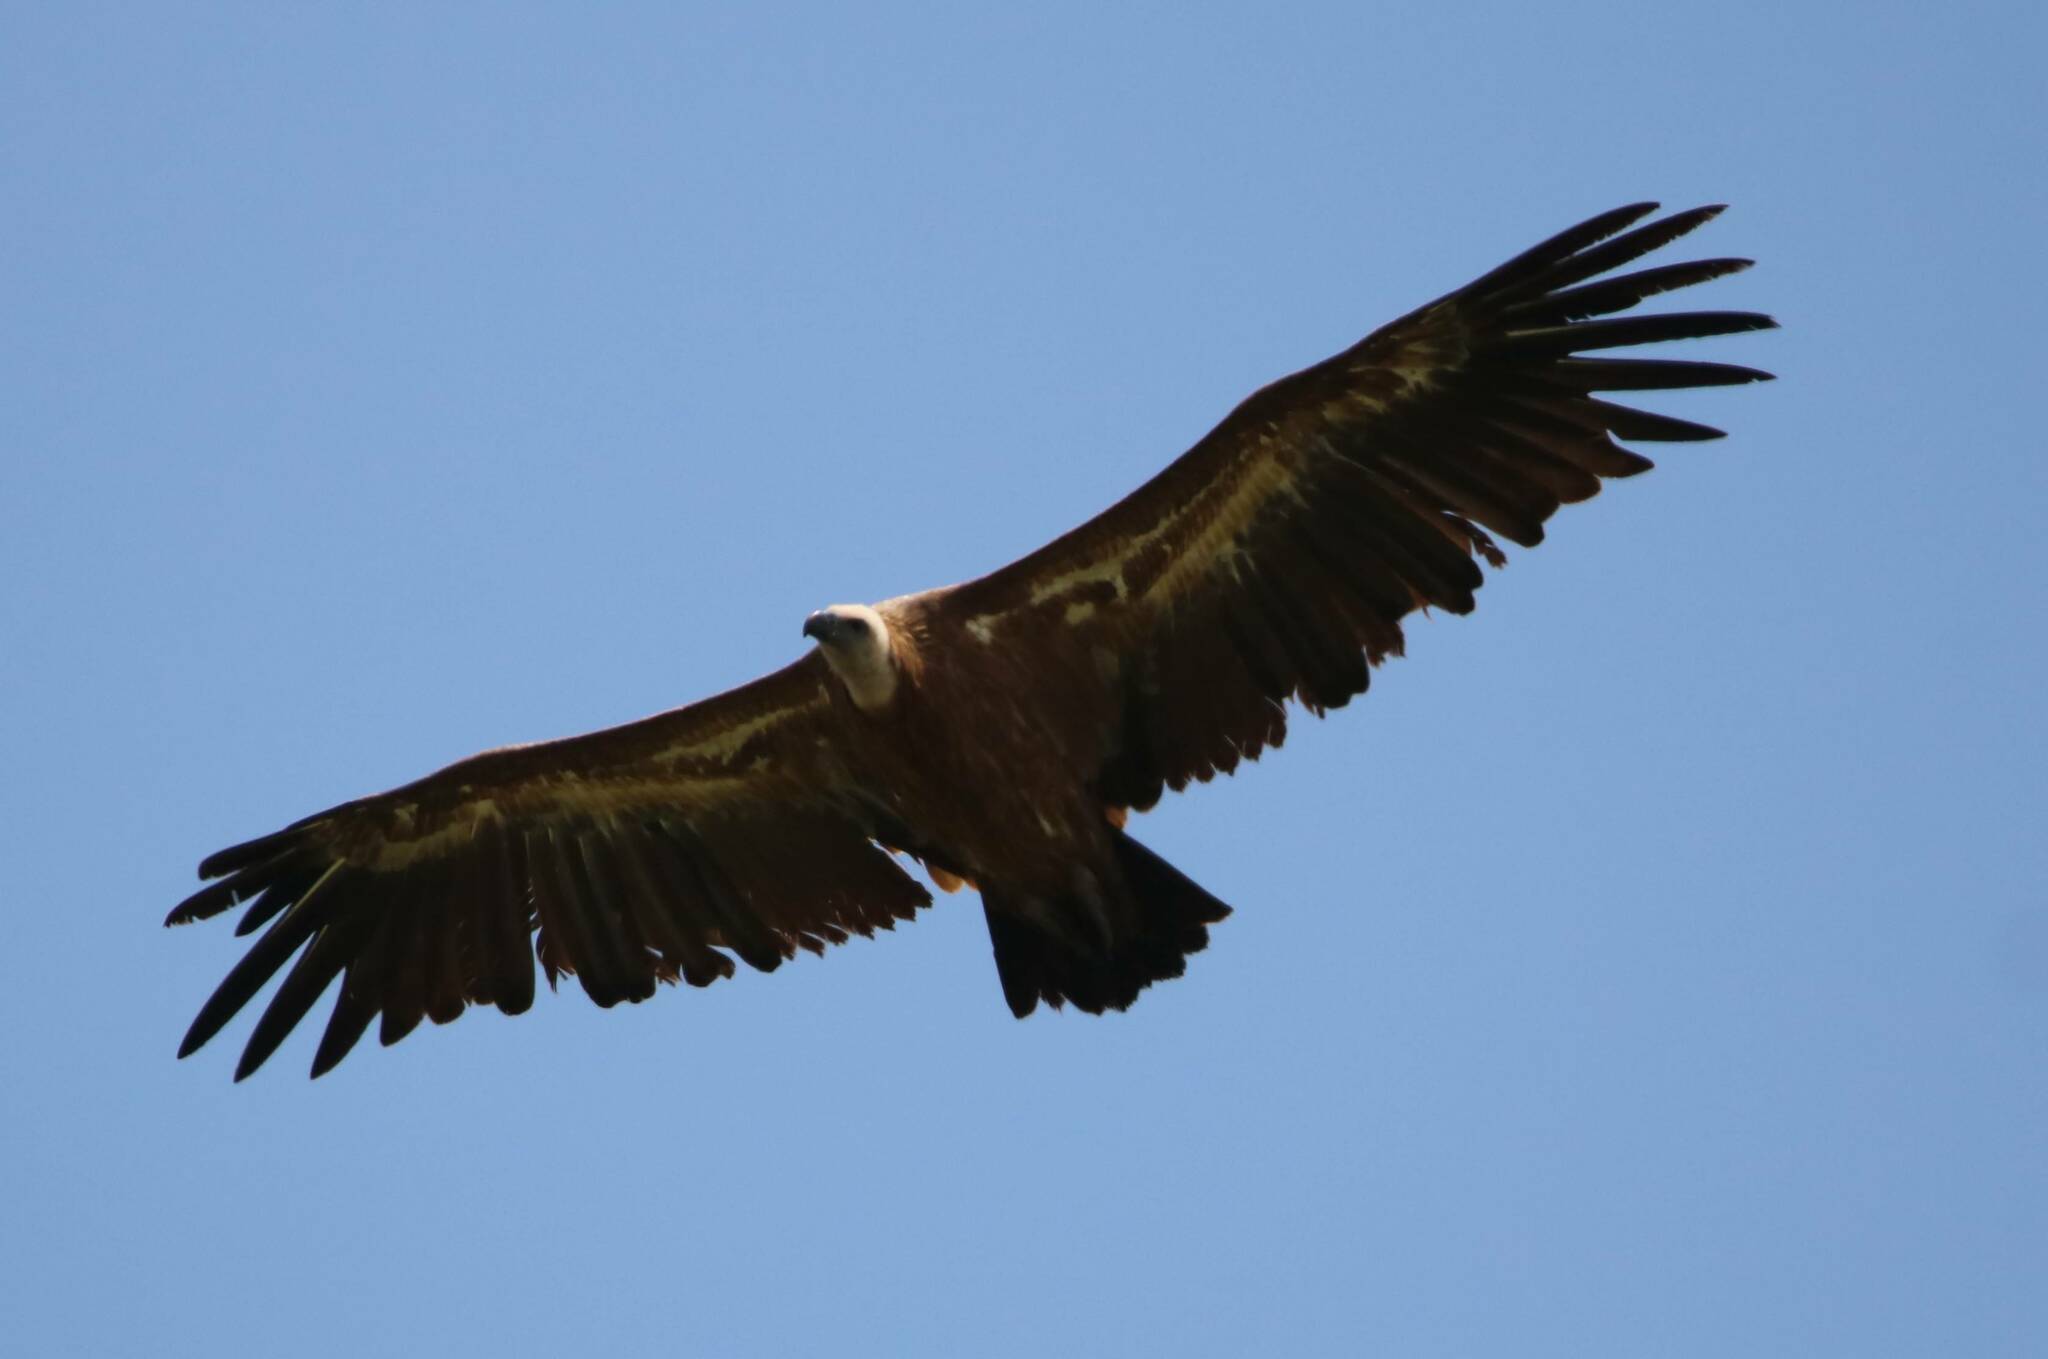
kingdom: Animalia
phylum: Chordata
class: Aves
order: Accipitriformes
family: Accipitridae
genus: Gyps
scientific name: Gyps fulvus
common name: Griffon vulture
